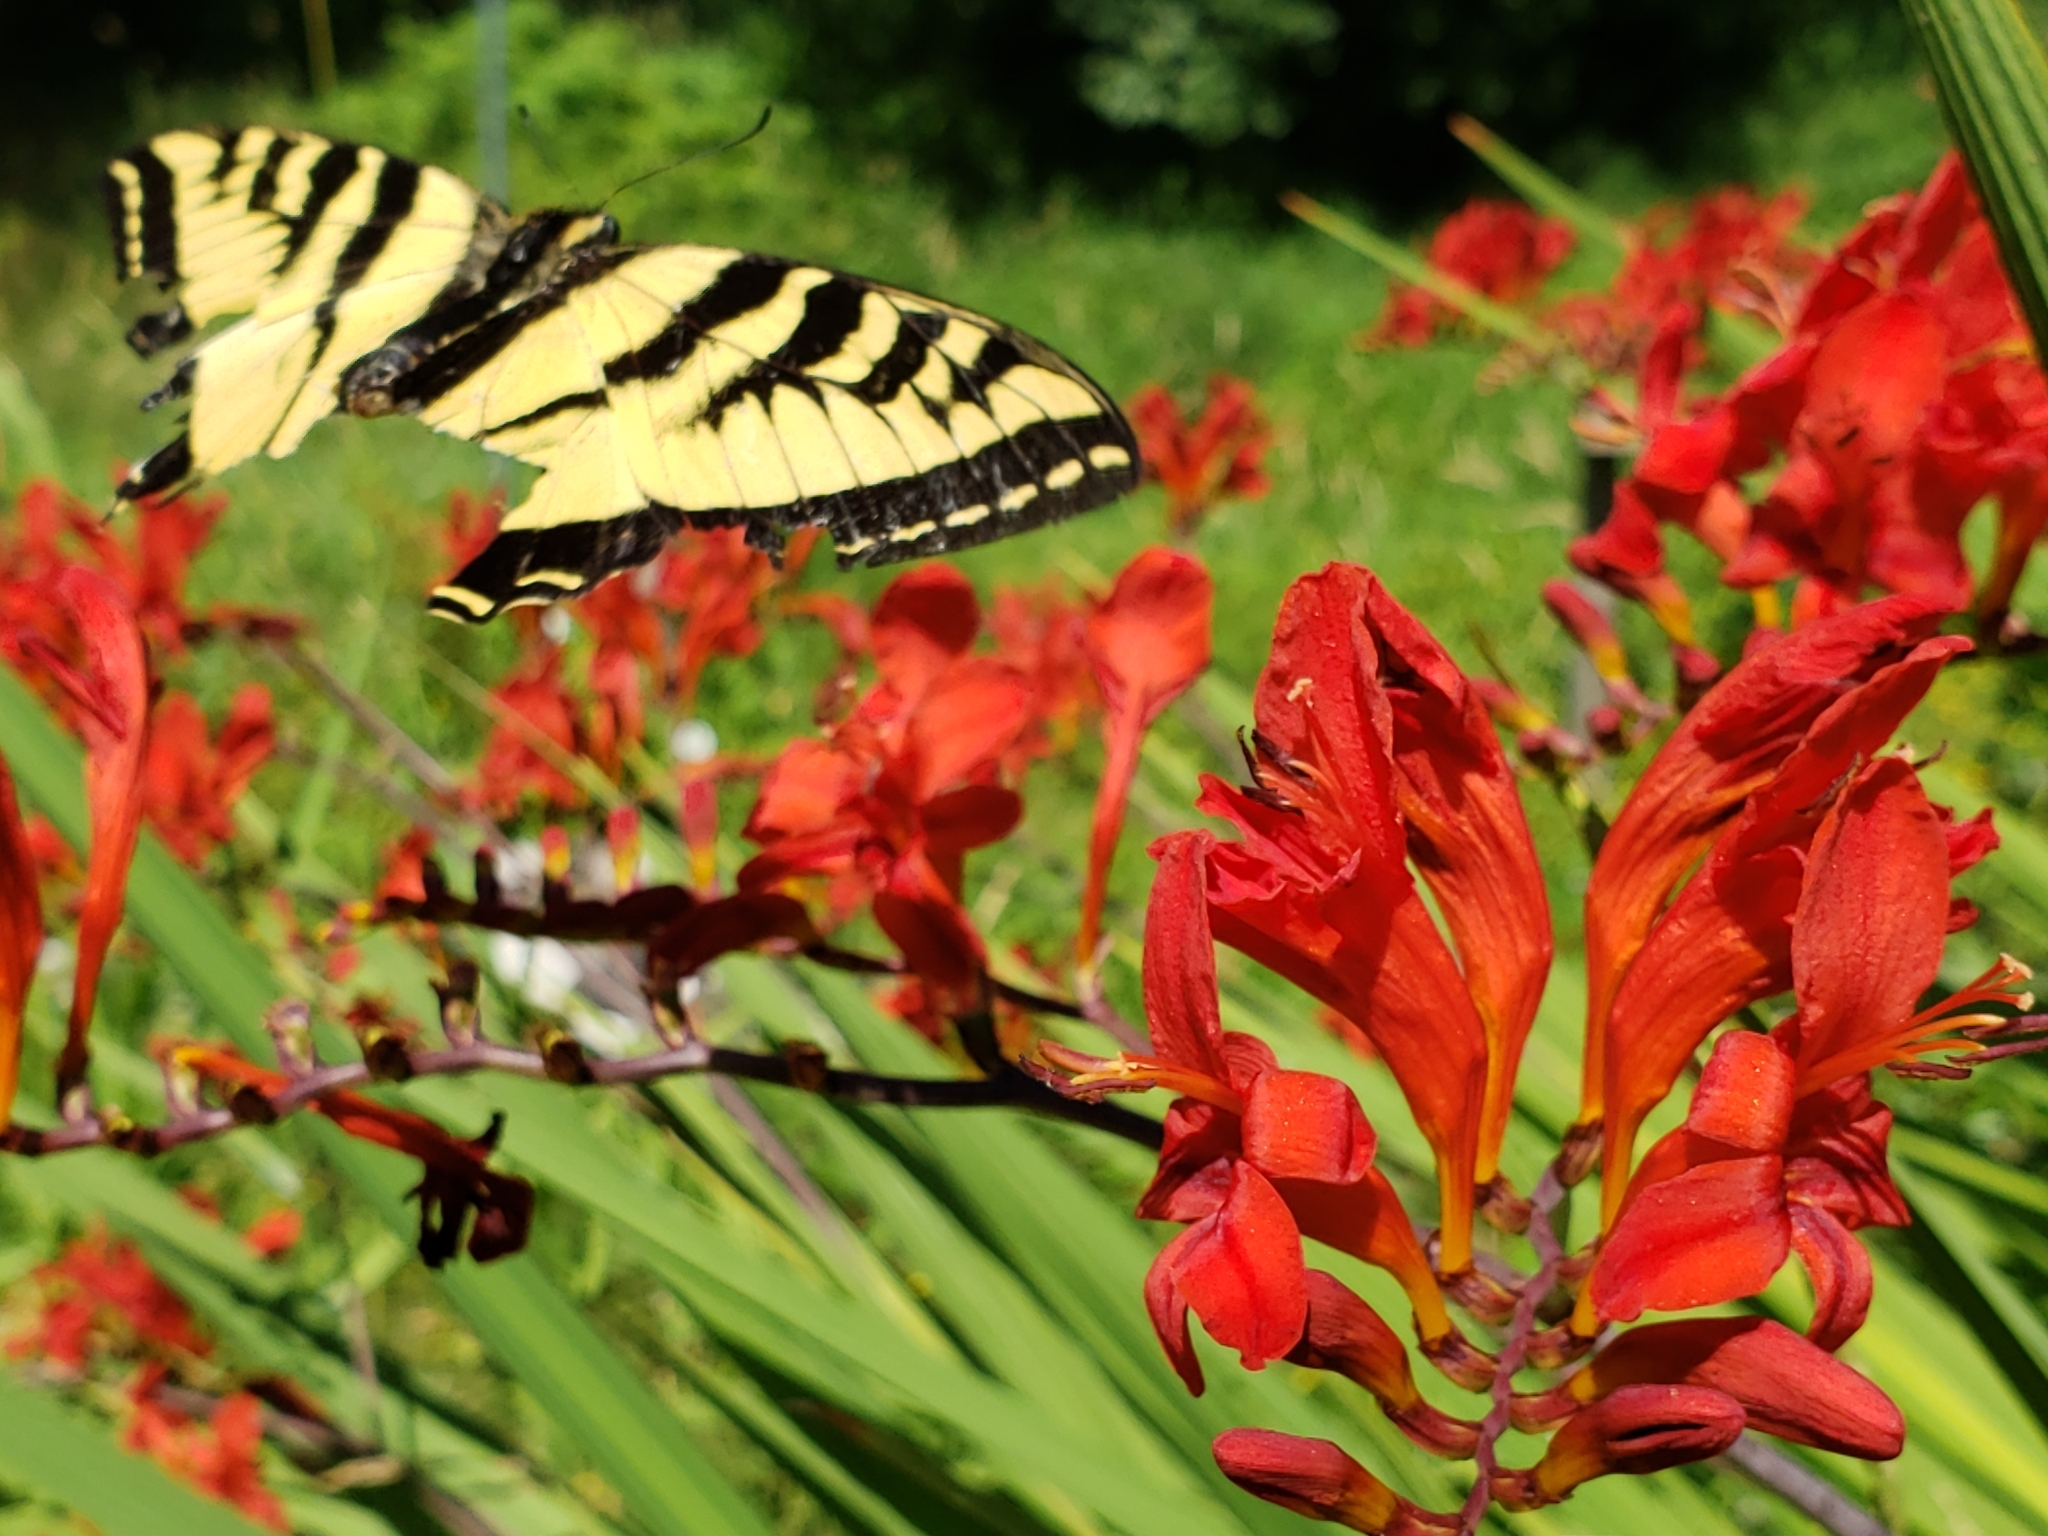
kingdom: Animalia
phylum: Arthropoda
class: Insecta
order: Lepidoptera
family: Papilionidae
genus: Papilio
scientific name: Papilio rutulus
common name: Western tiger swallowtail
